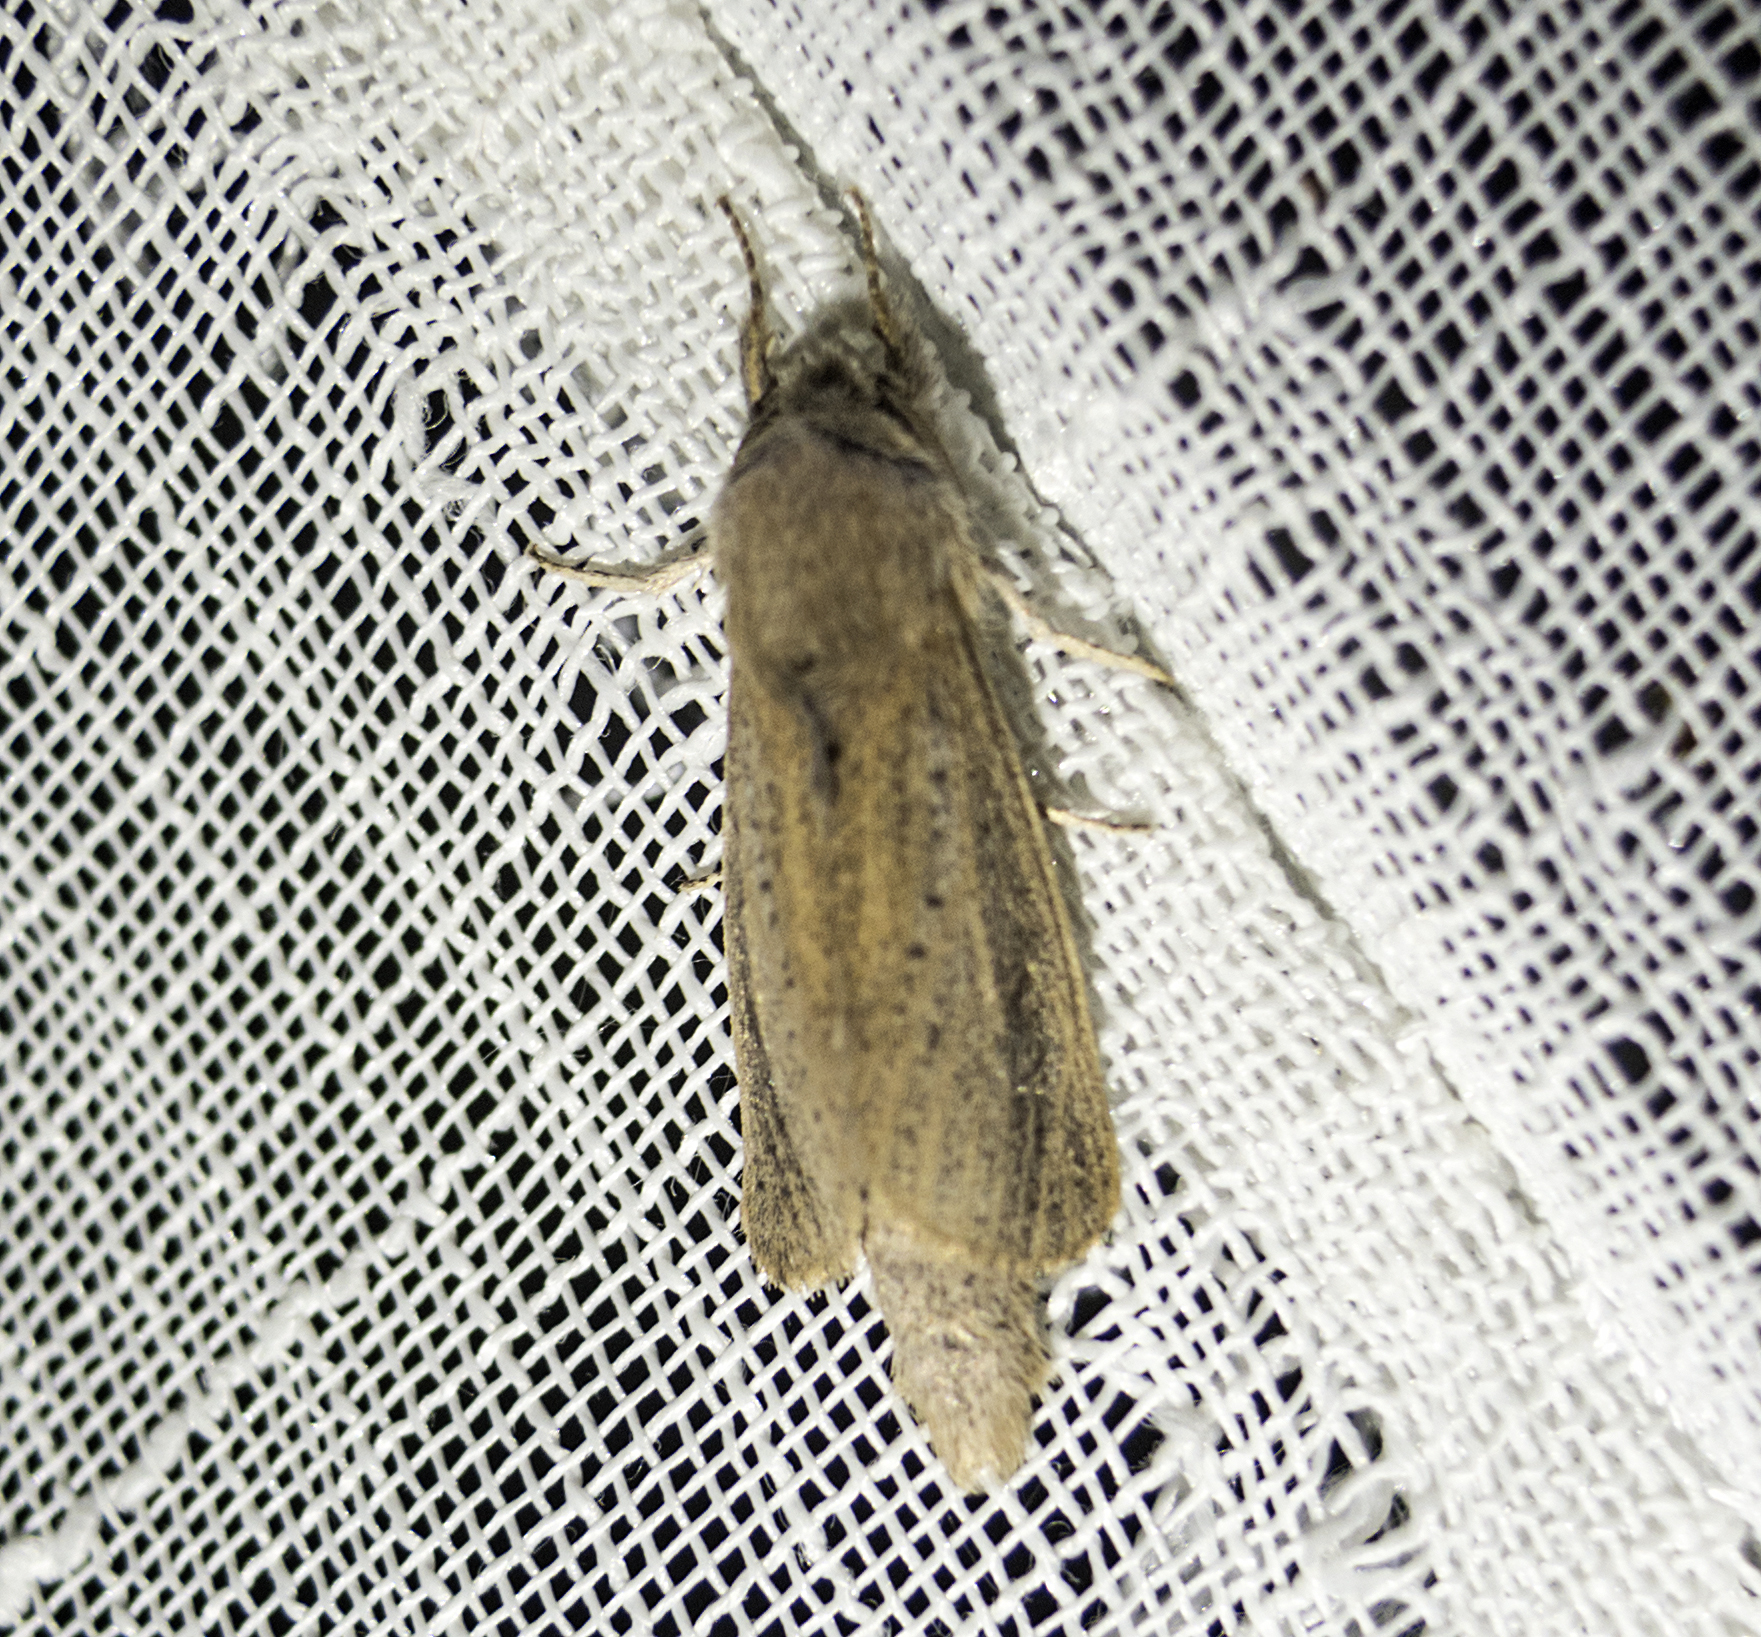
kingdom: Animalia
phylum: Arthropoda
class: Insecta
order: Lepidoptera
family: Cossidae
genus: Phragmataecia
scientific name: Phragmataecia castaneae
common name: Reed leopard
